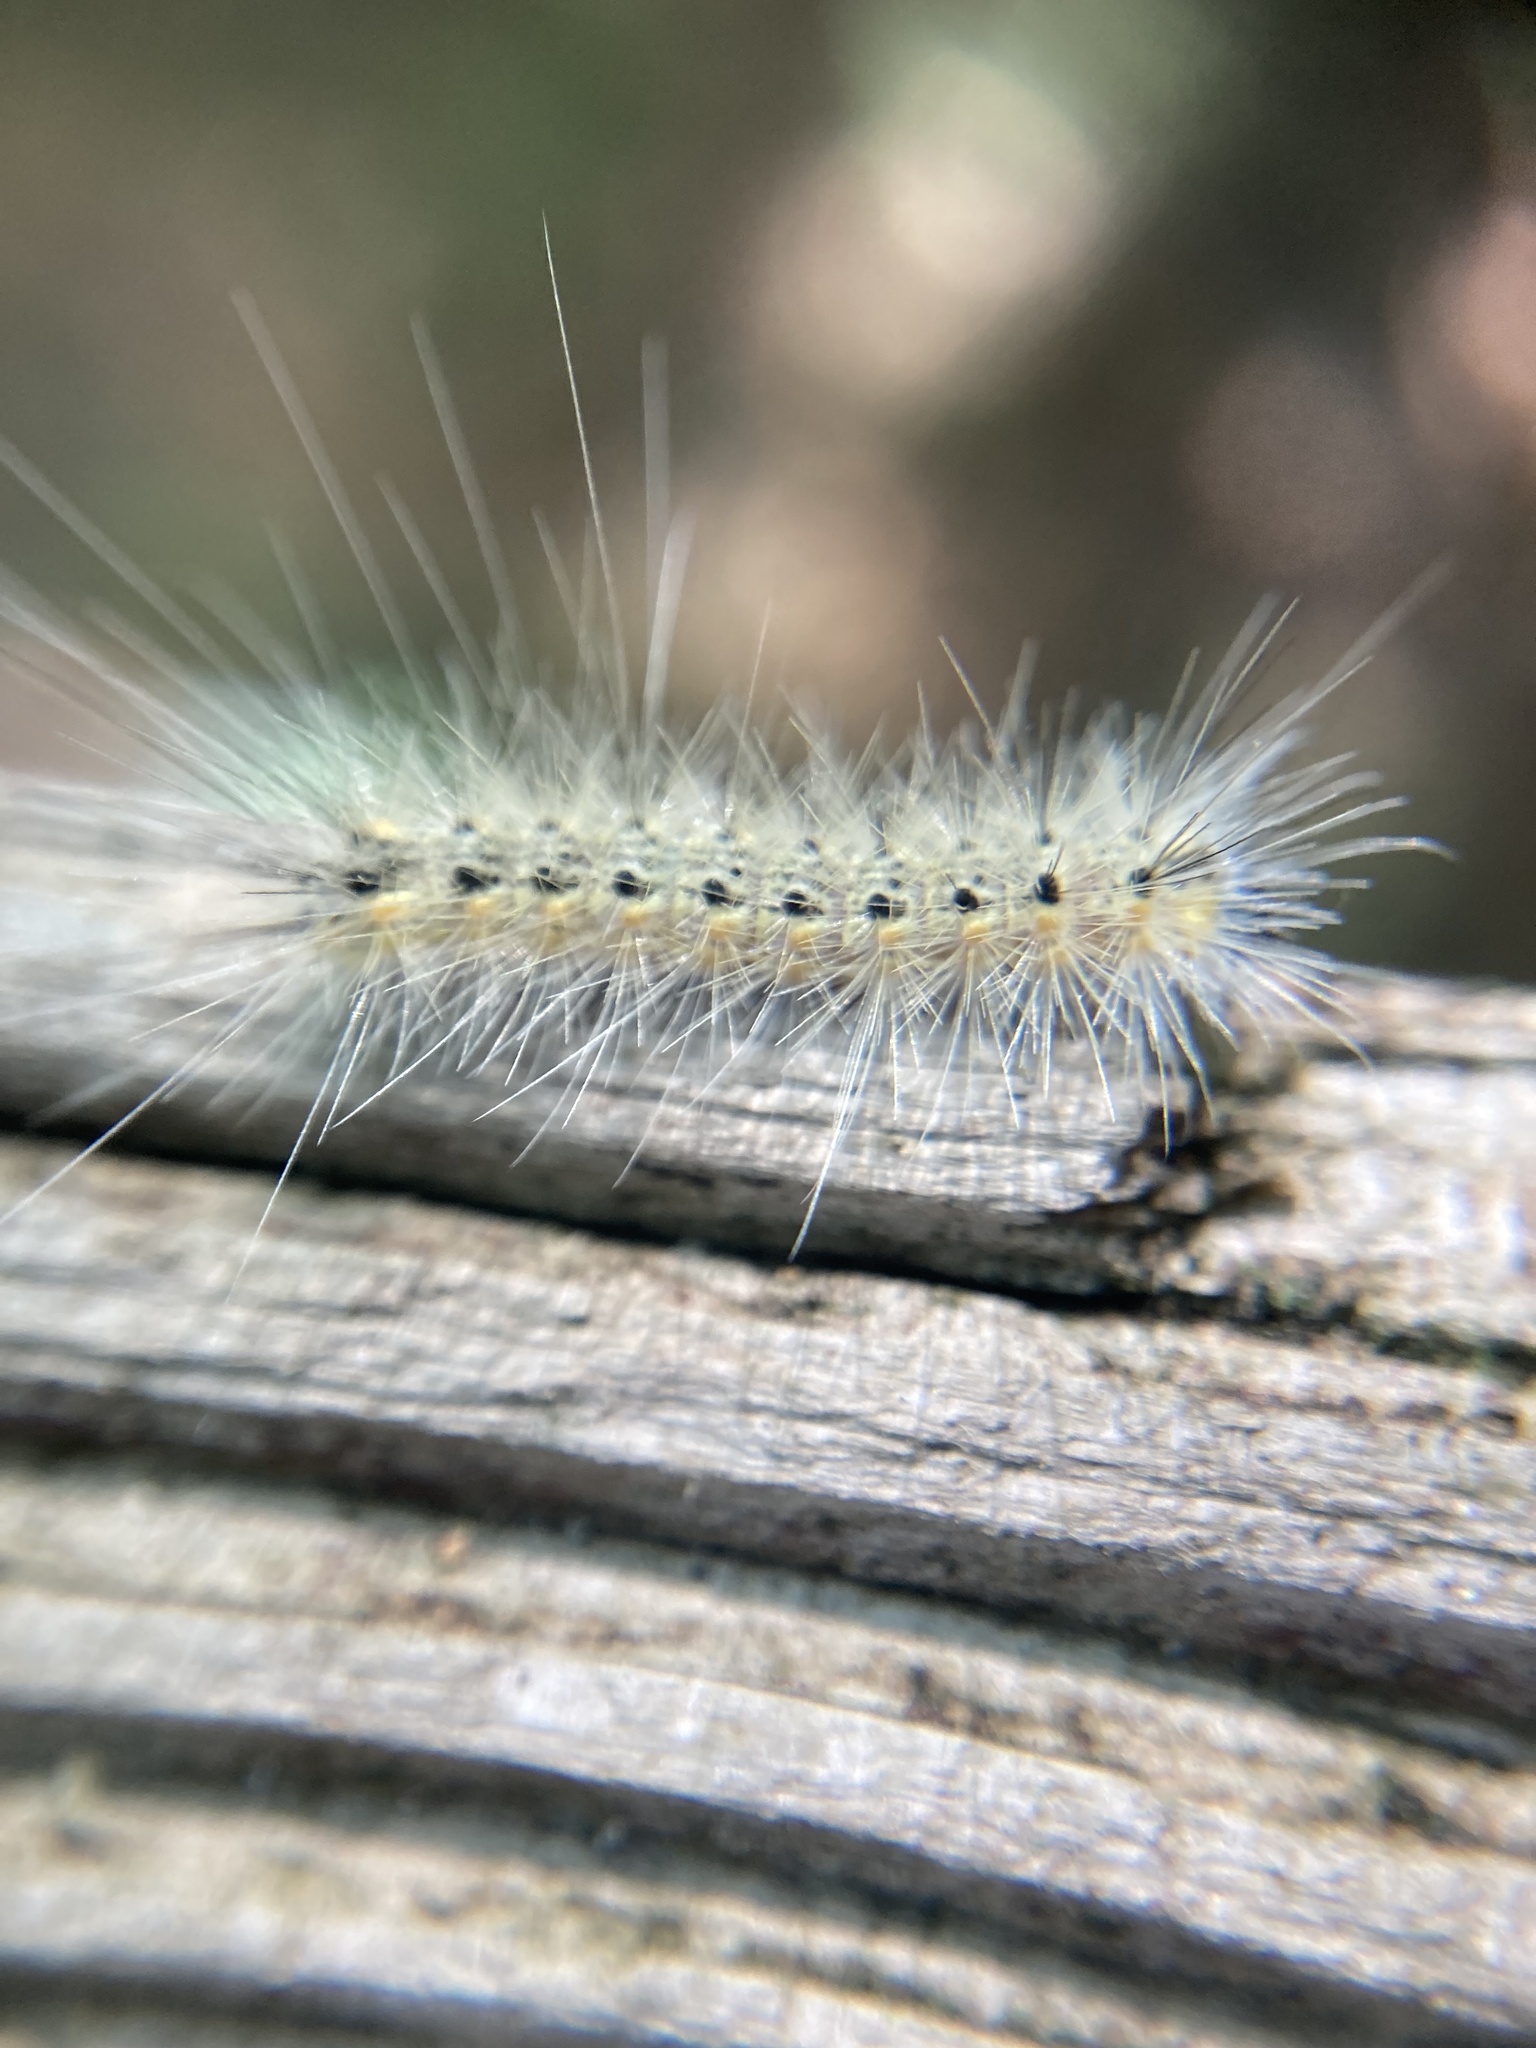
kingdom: Animalia
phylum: Arthropoda
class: Insecta
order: Lepidoptera
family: Erebidae
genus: Hyphantria
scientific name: Hyphantria cunea
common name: American white moth
